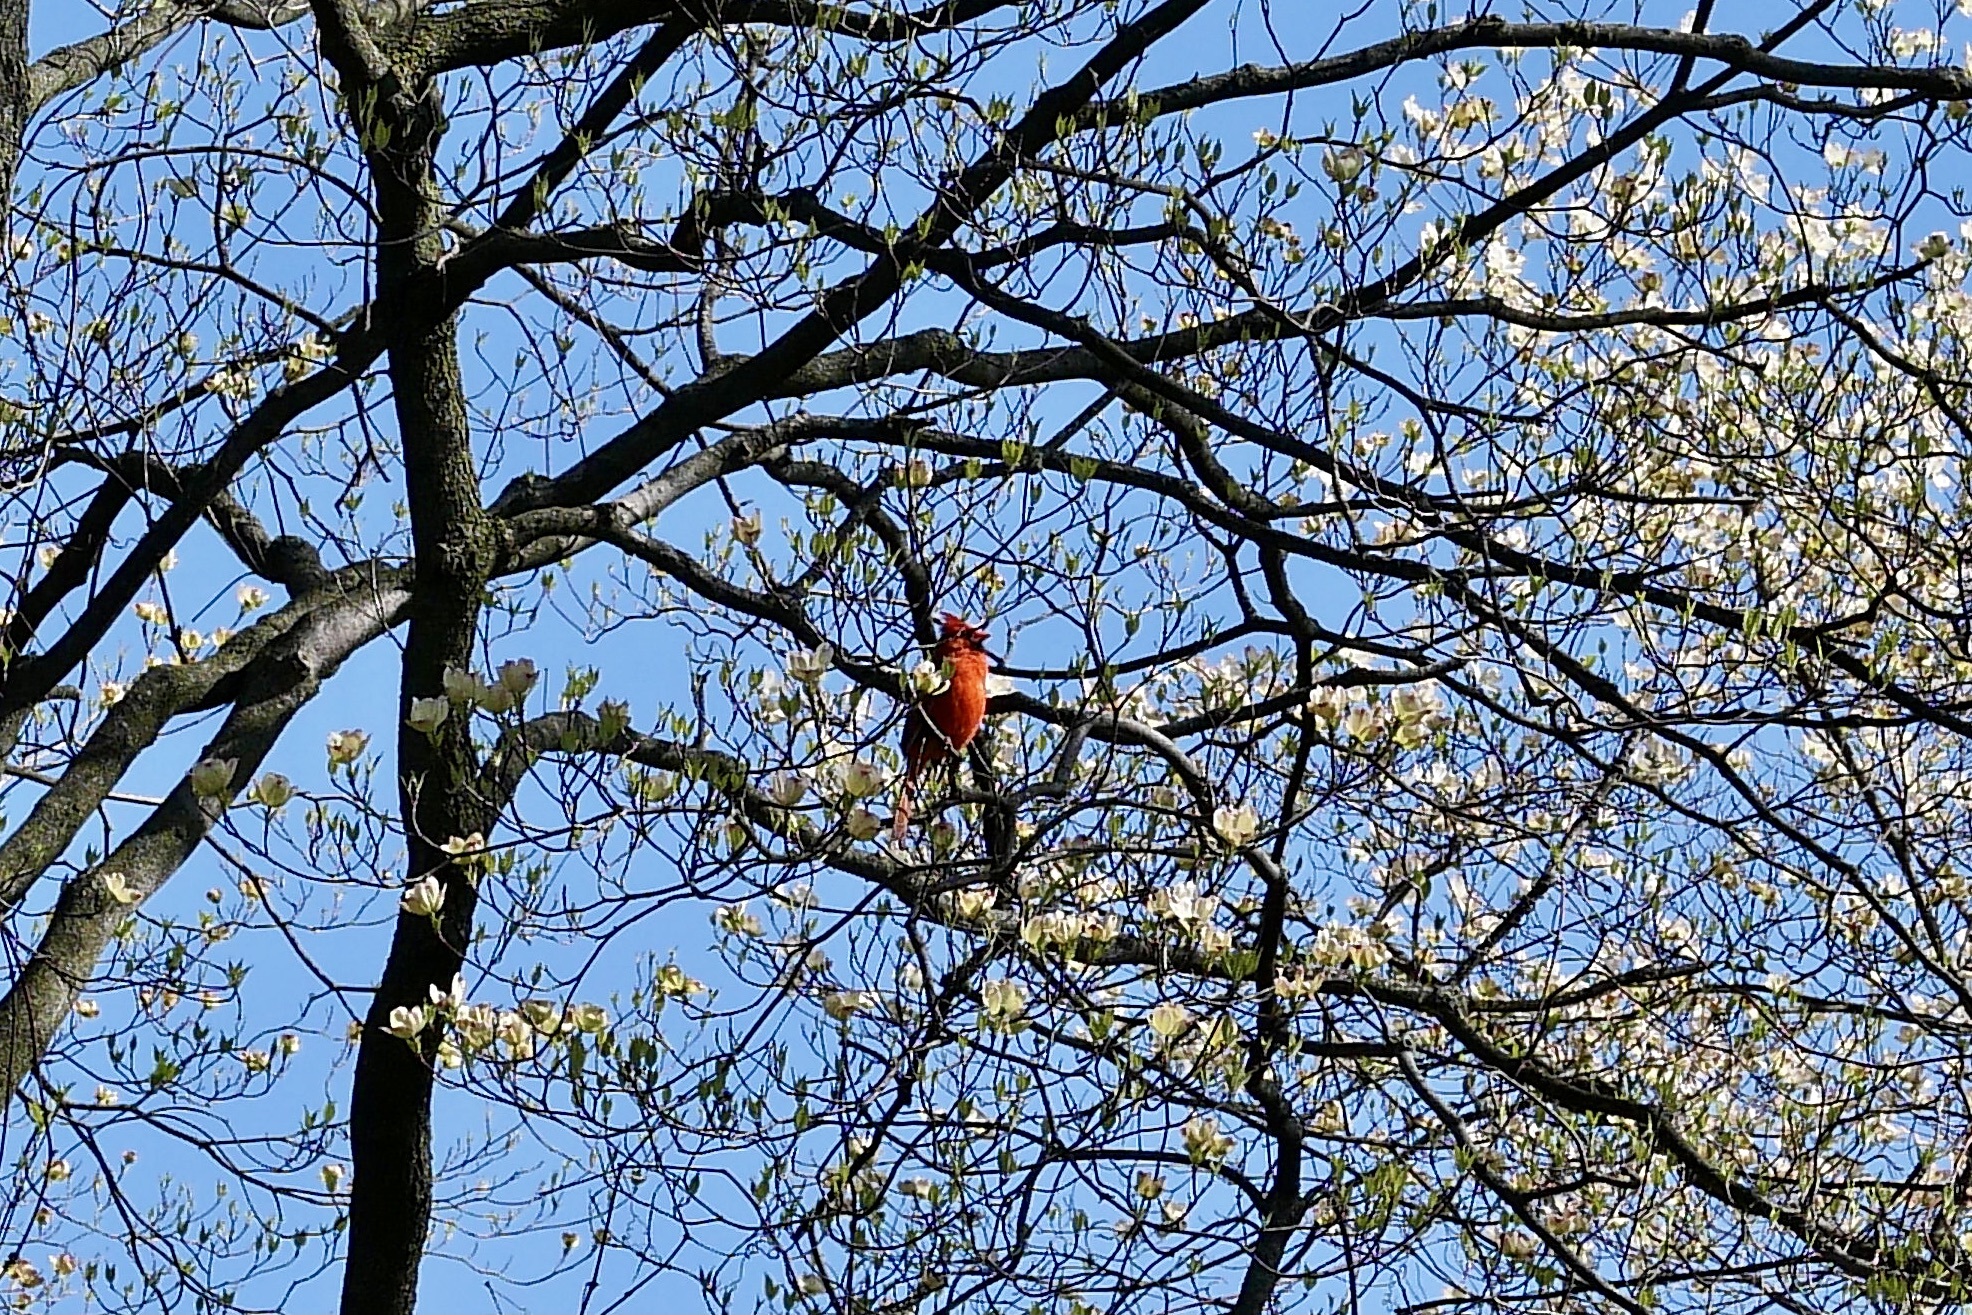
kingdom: Animalia
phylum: Chordata
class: Aves
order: Passeriformes
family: Cardinalidae
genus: Cardinalis
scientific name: Cardinalis cardinalis
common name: Northern cardinal
